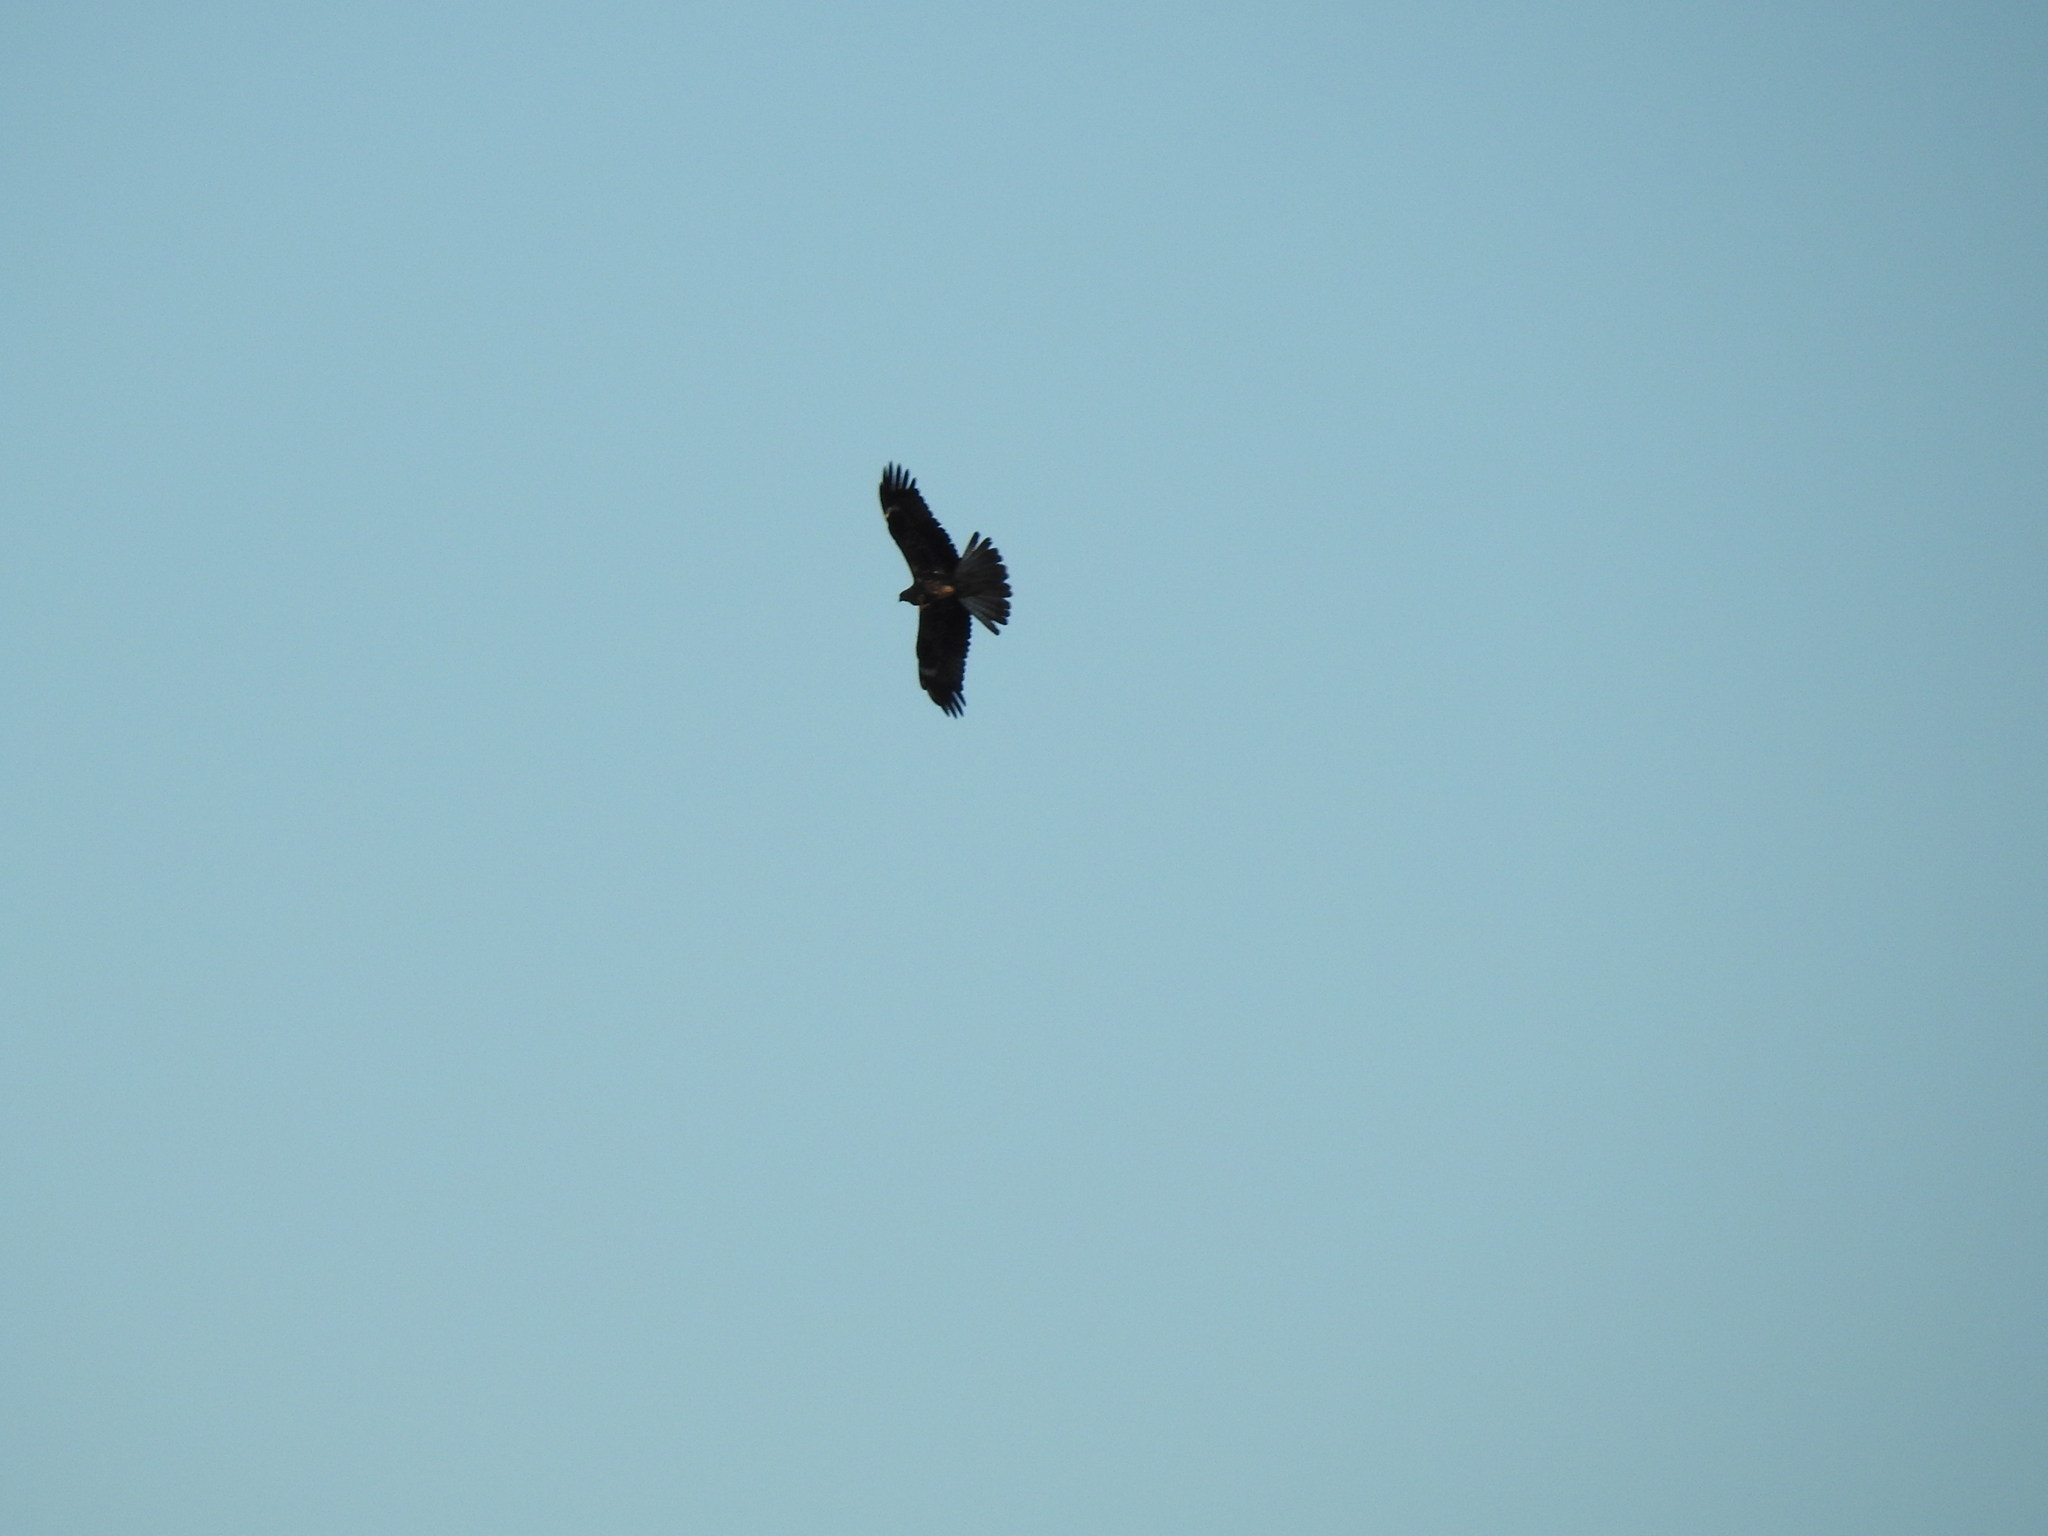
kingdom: Animalia
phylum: Chordata
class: Aves
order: Accipitriformes
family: Accipitridae
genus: Milvus
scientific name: Milvus migrans
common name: Black kite
